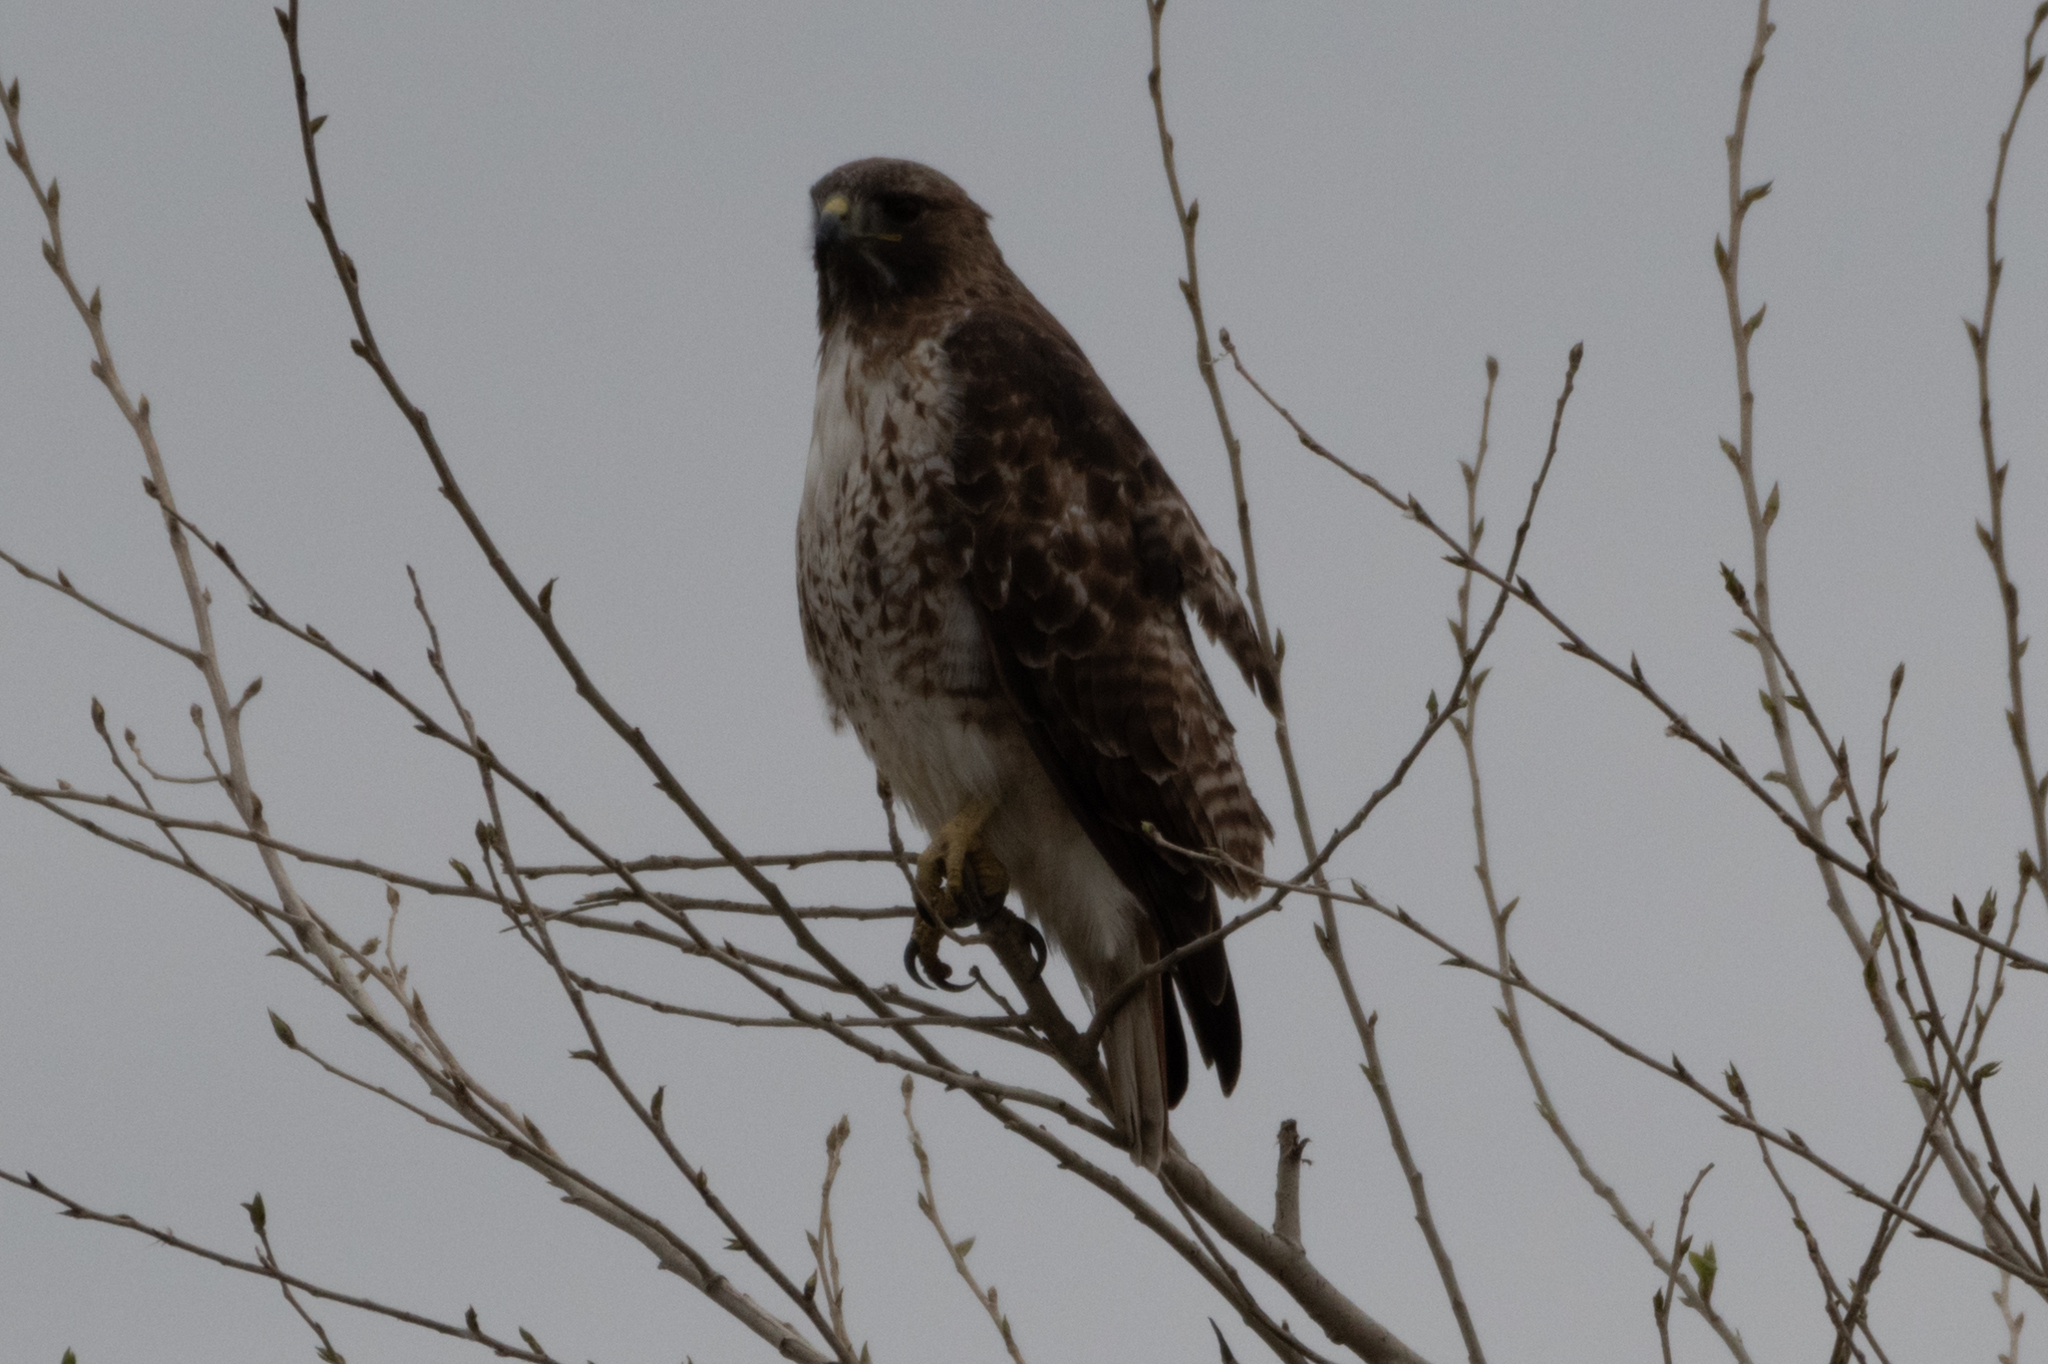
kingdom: Animalia
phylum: Chordata
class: Aves
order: Accipitriformes
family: Accipitridae
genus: Buteo
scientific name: Buteo jamaicensis
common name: Red-tailed hawk
